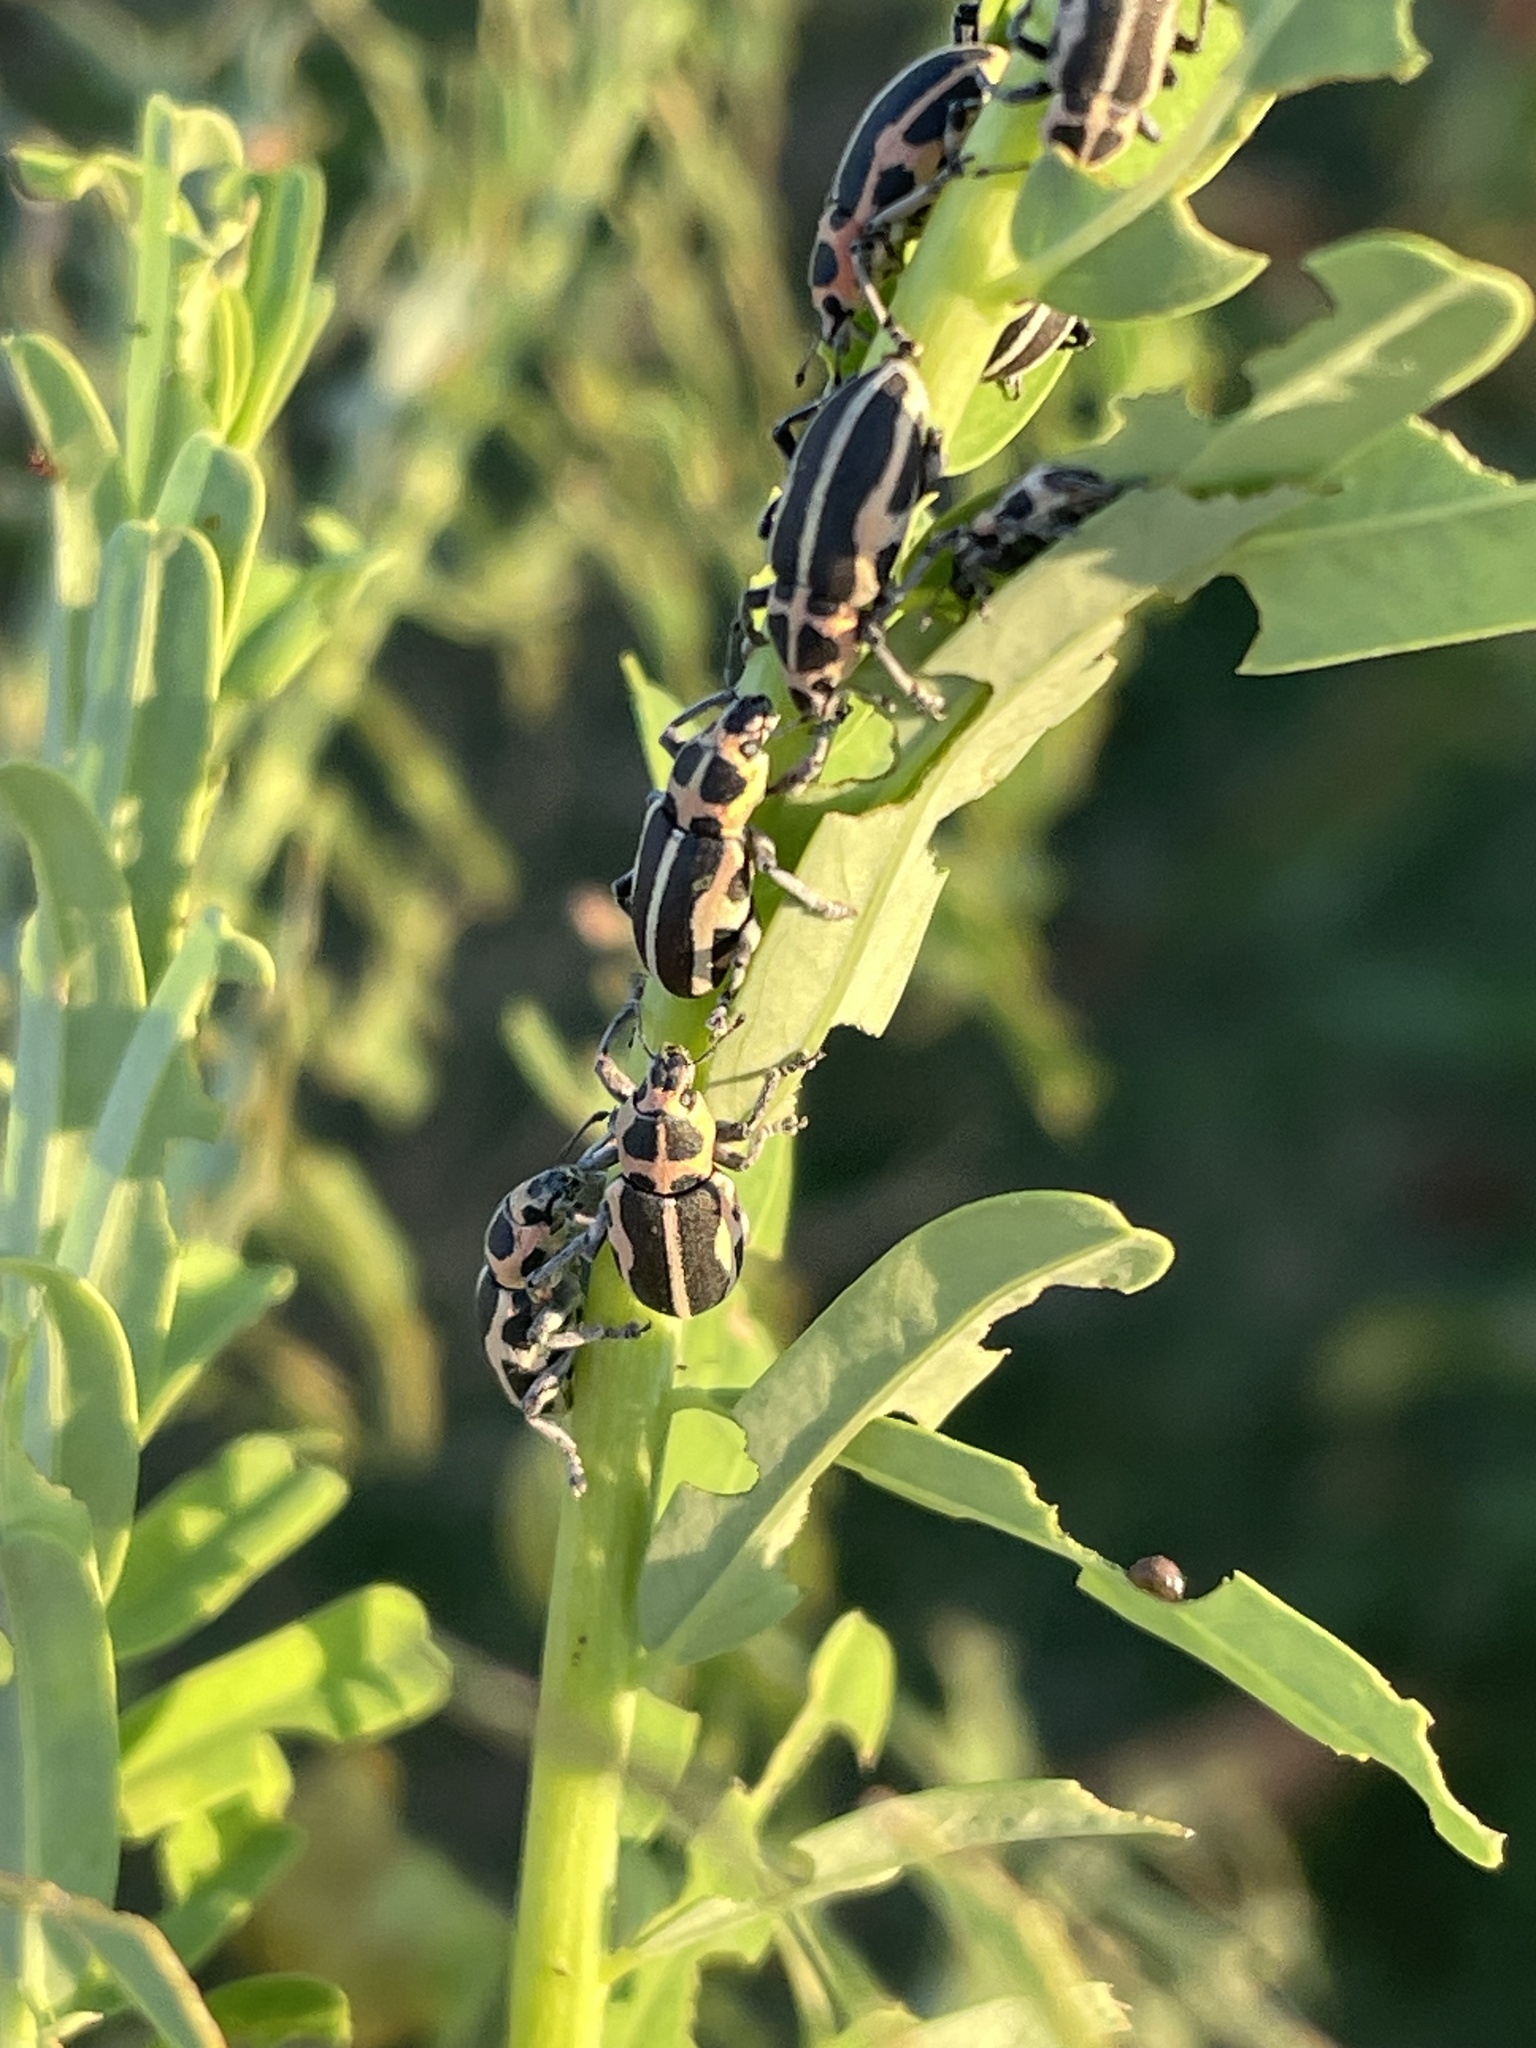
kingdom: Animalia
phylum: Arthropoda
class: Insecta
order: Coleoptera
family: Curculionidae
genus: Eudiagogus
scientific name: Eudiagogus pulcher
